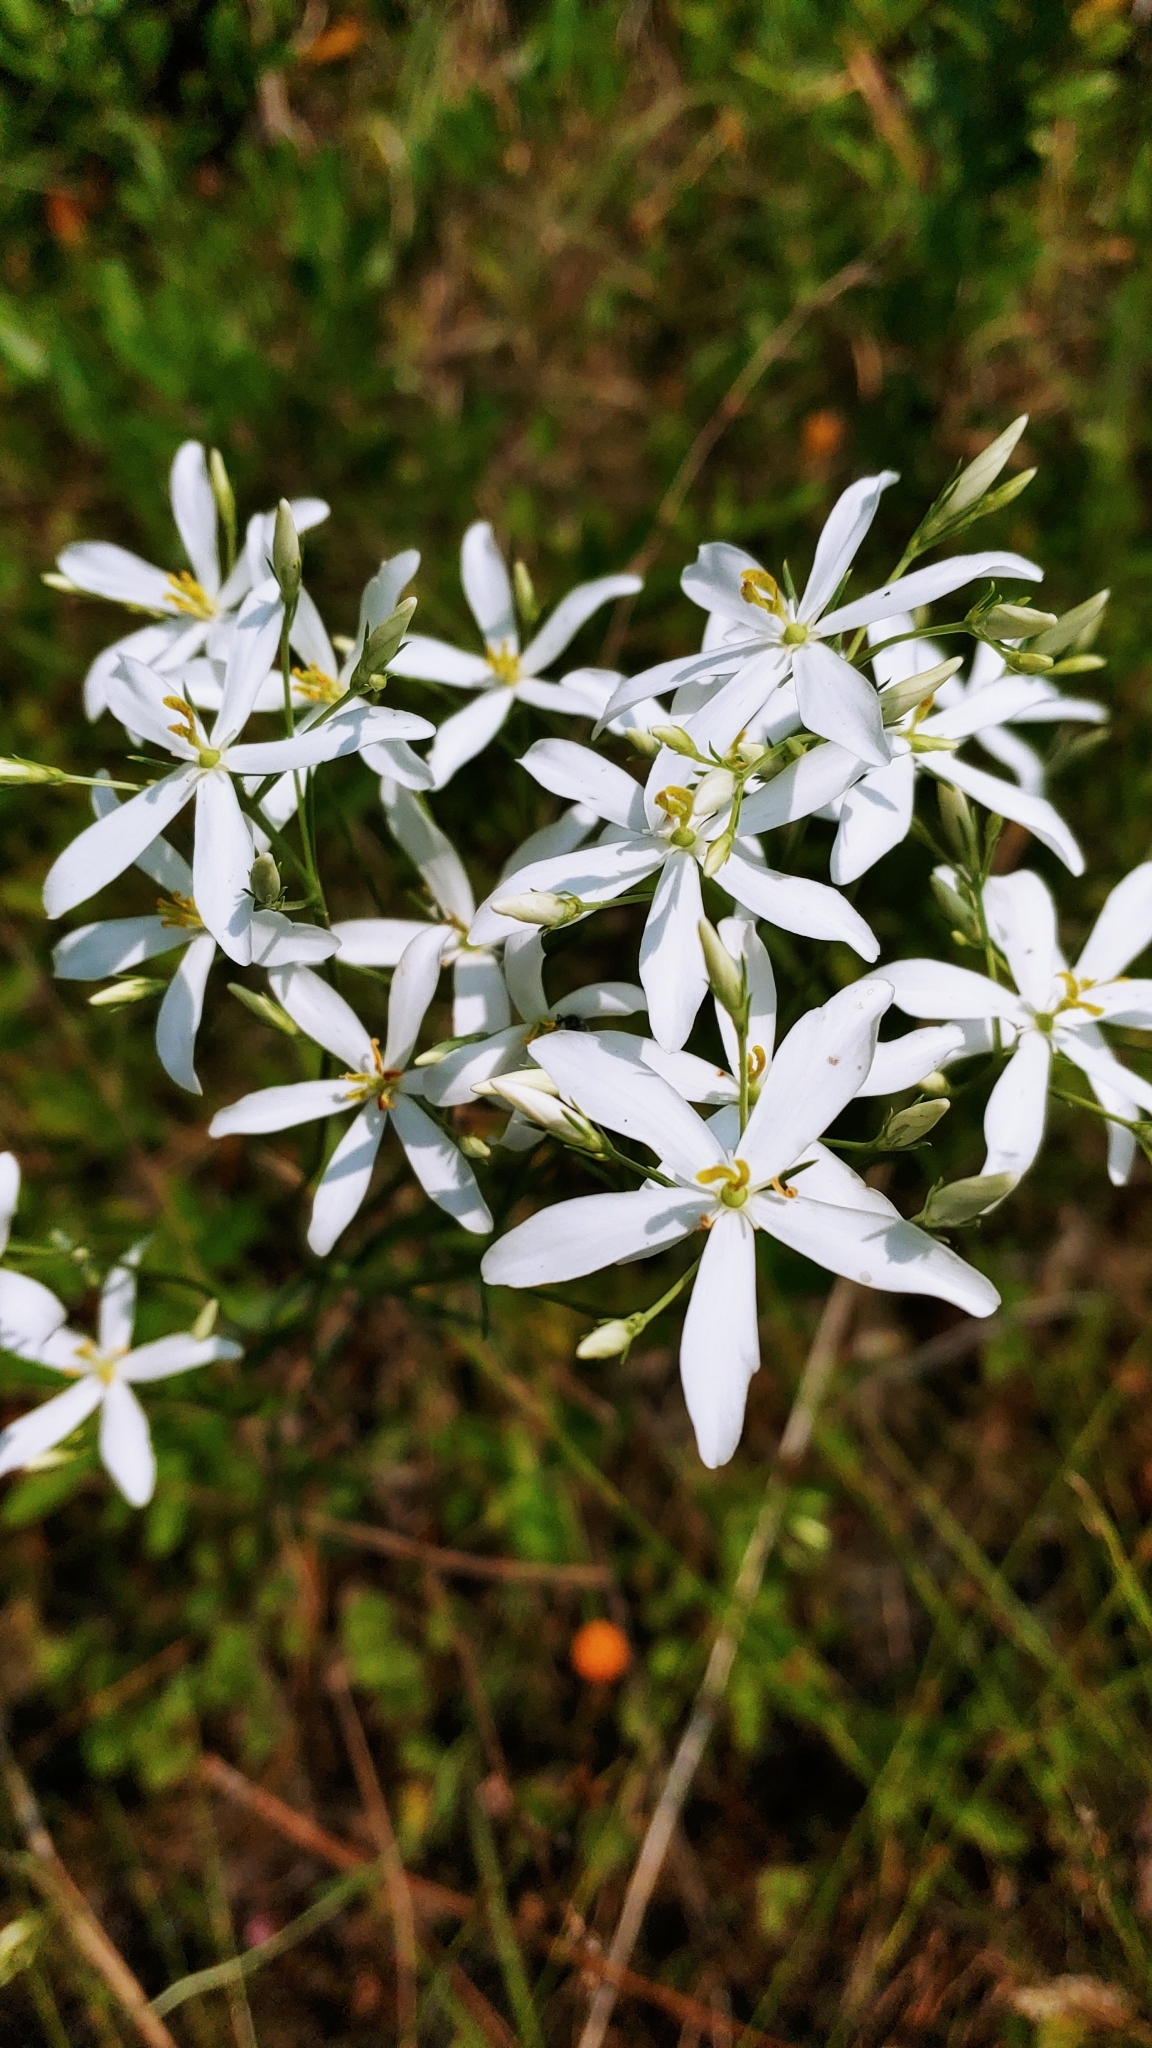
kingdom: Plantae
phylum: Tracheophyta
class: Magnoliopsida
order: Gentianales
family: Gentianaceae
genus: Sabatia
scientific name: Sabatia difformis
